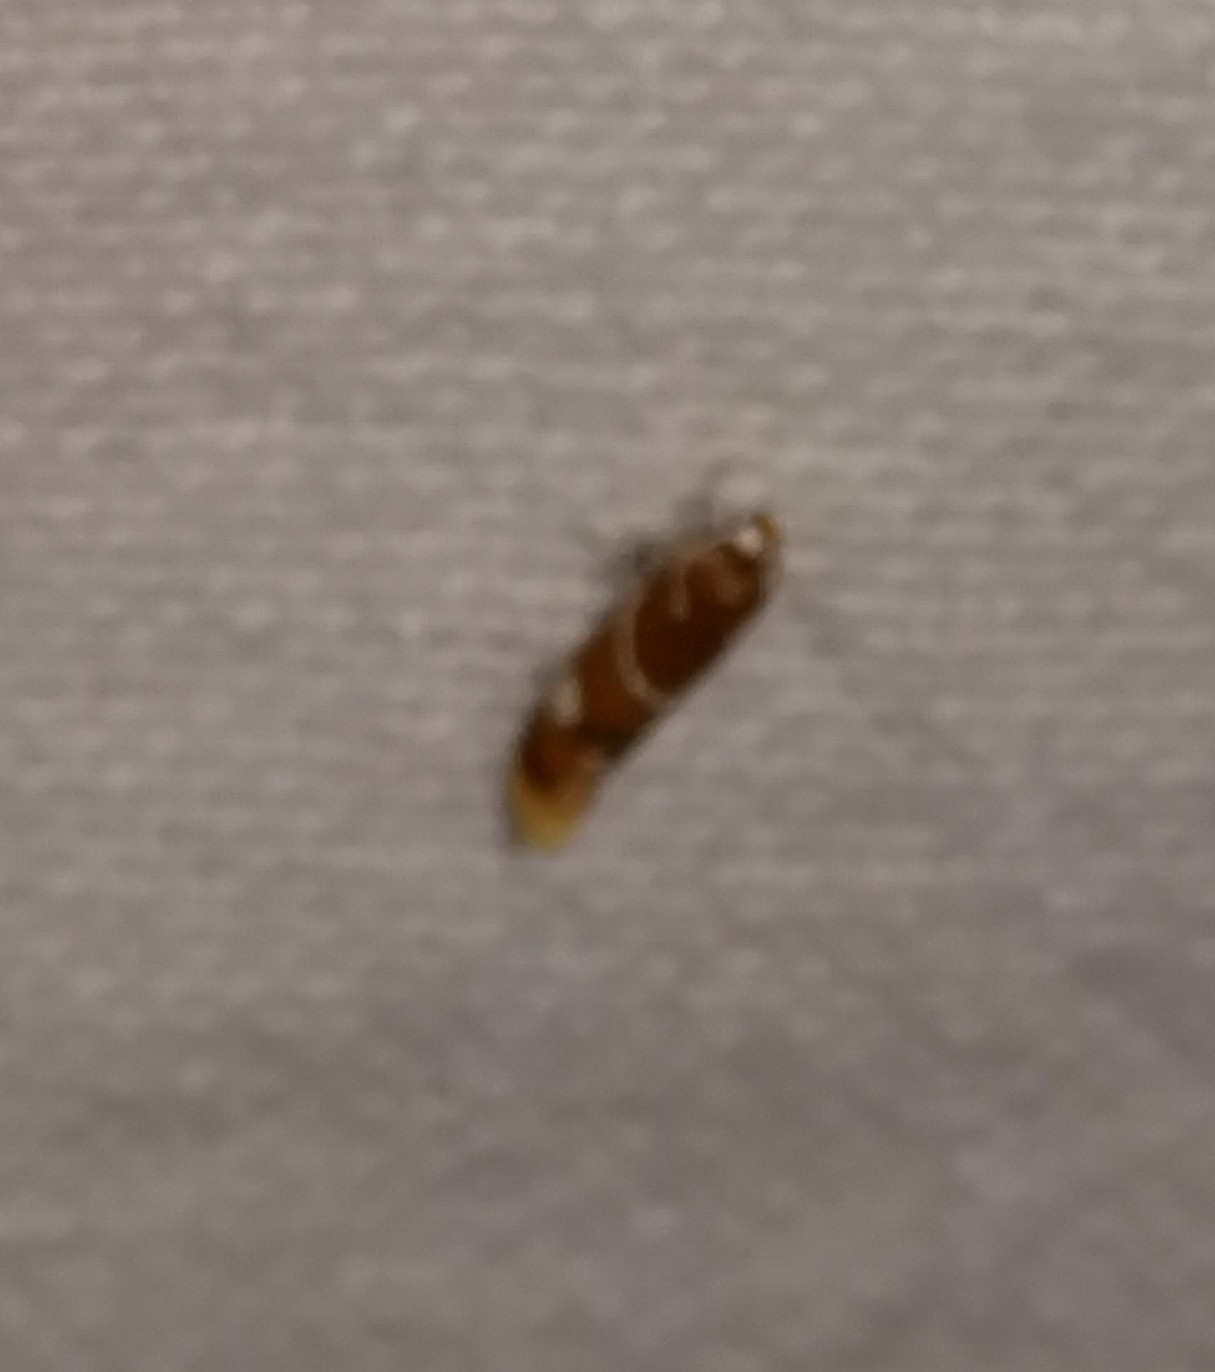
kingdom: Animalia
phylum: Arthropoda
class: Insecta
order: Lepidoptera
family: Oecophoridae
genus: Promalactis
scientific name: Promalactis suzukiella
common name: Moth
